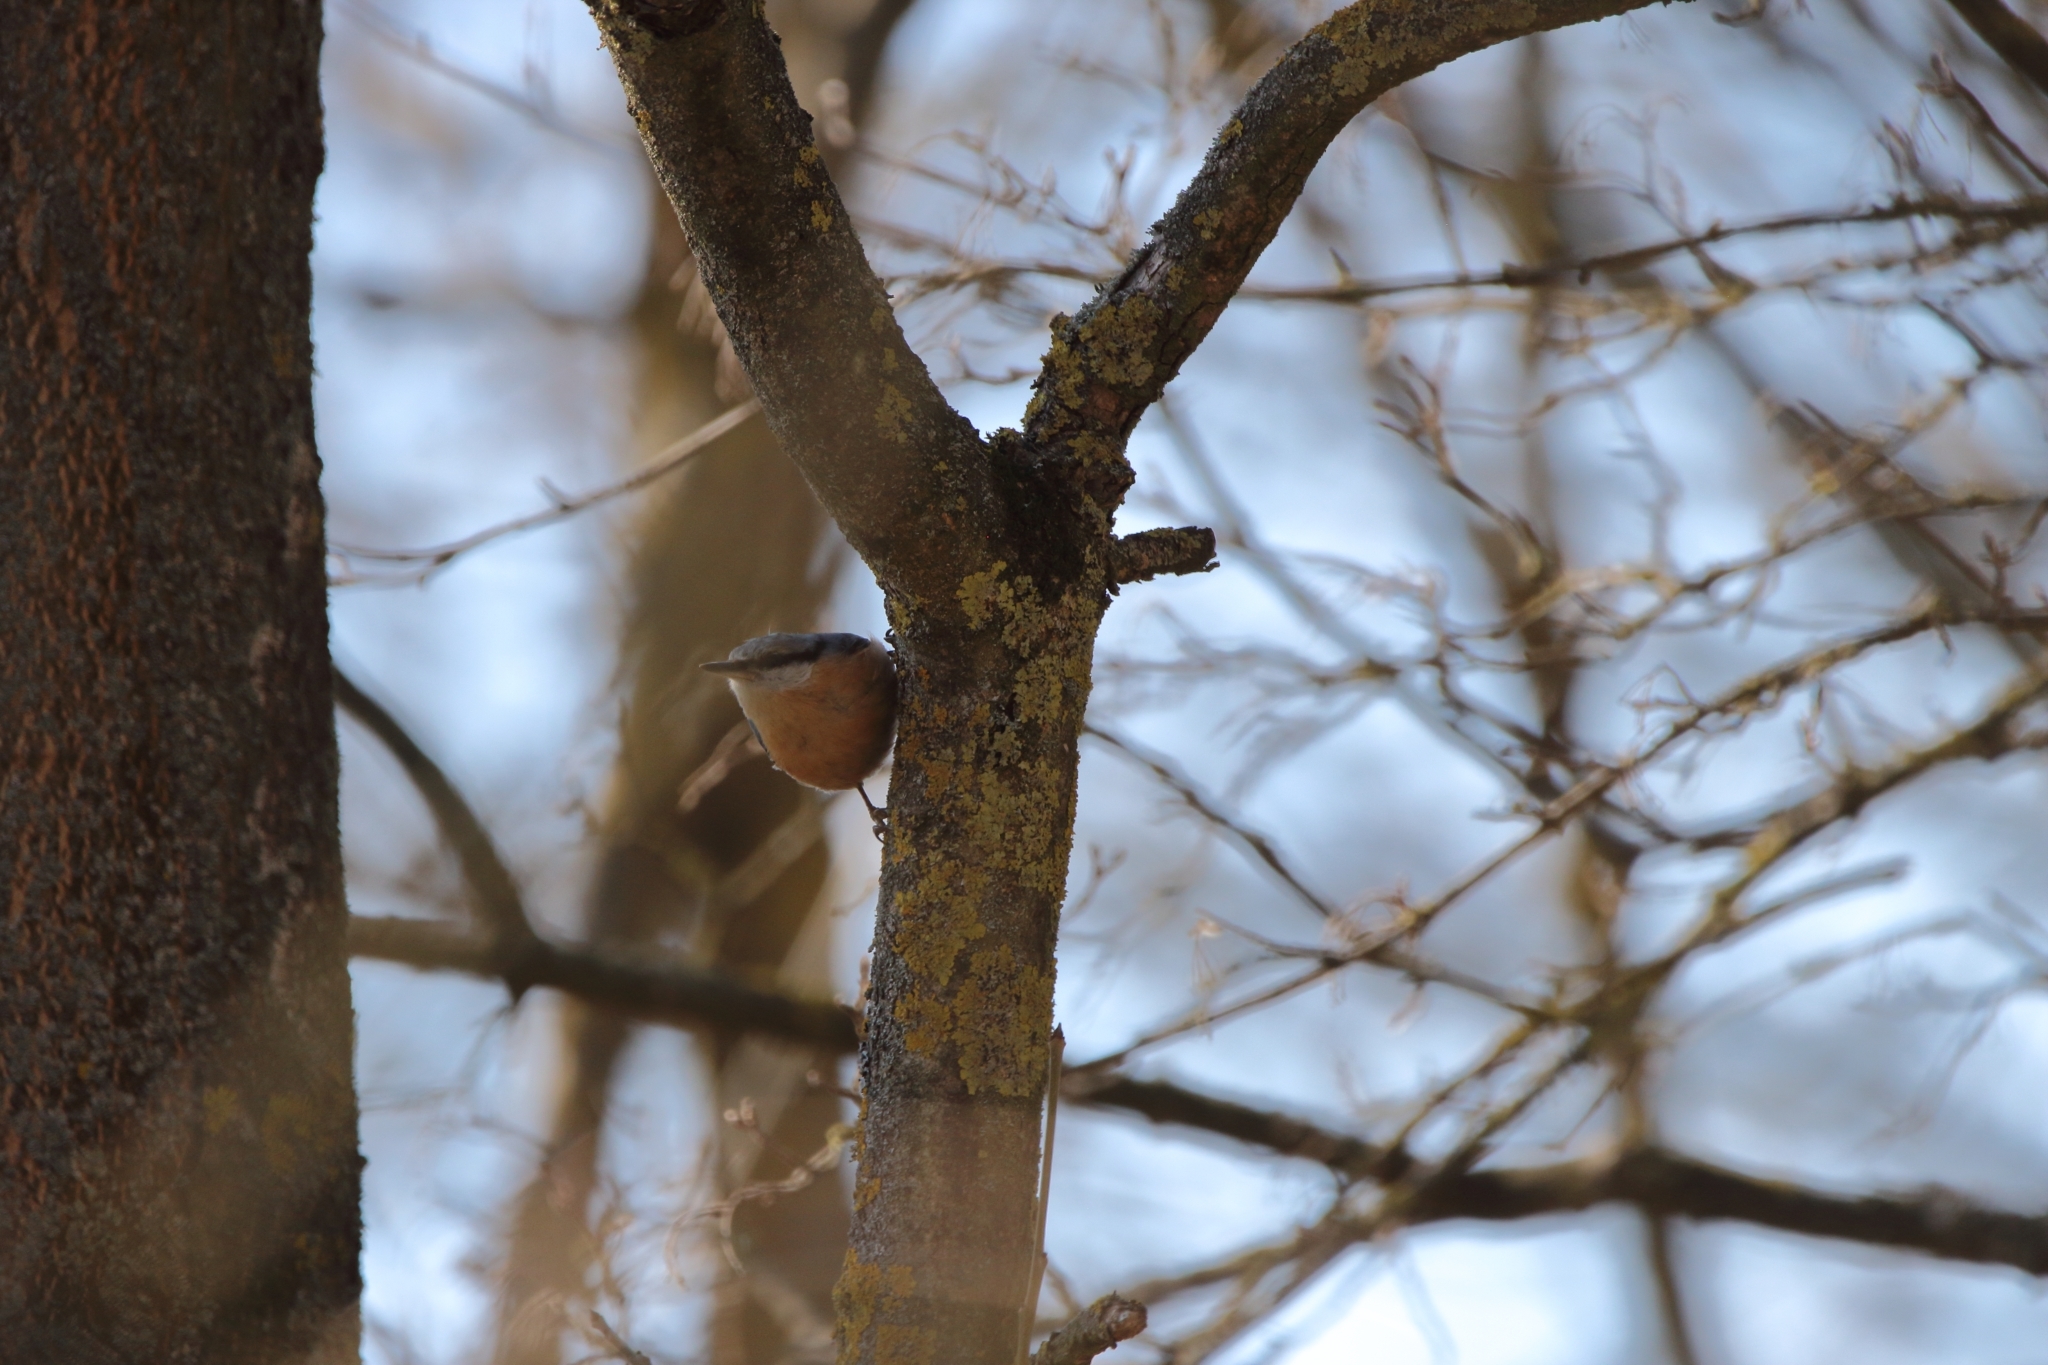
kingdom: Animalia
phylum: Chordata
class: Aves
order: Passeriformes
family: Sittidae
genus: Sitta
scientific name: Sitta europaea
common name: Eurasian nuthatch
